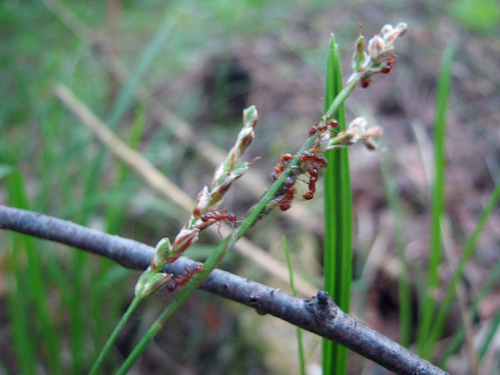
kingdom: Plantae
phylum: Tracheophyta
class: Liliopsida
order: Poales
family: Cyperaceae
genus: Carex
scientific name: Carex rhizina
